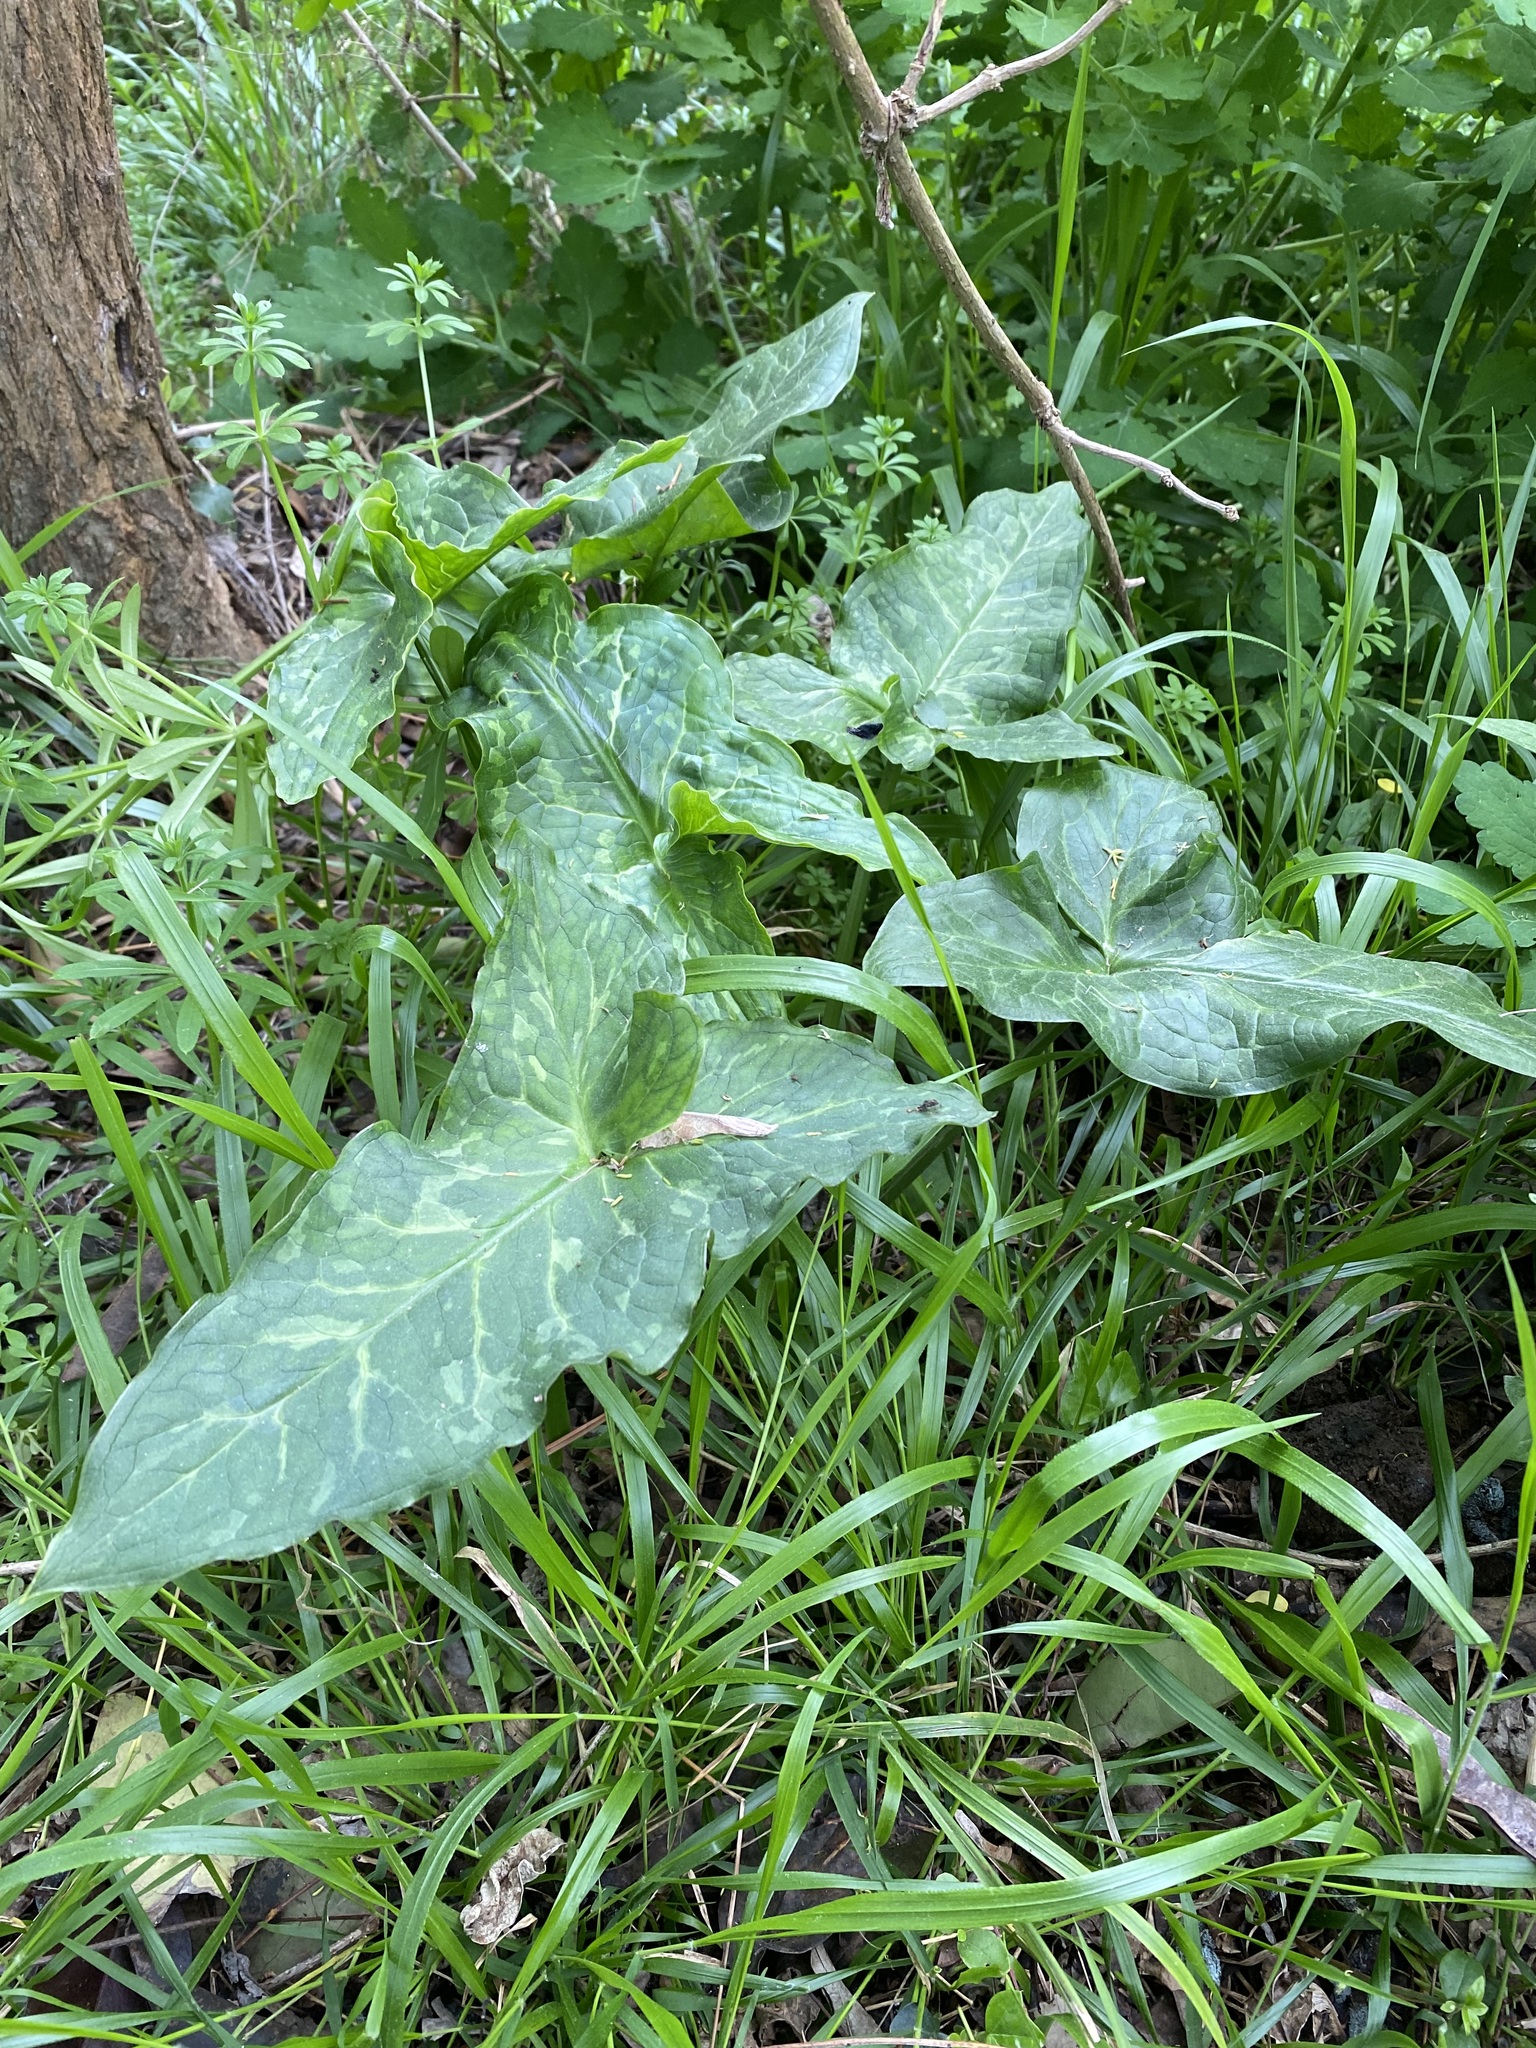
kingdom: Plantae
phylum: Tracheophyta
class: Liliopsida
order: Alismatales
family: Araceae
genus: Arum
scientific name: Arum italicum
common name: Italian lords-and-ladies
